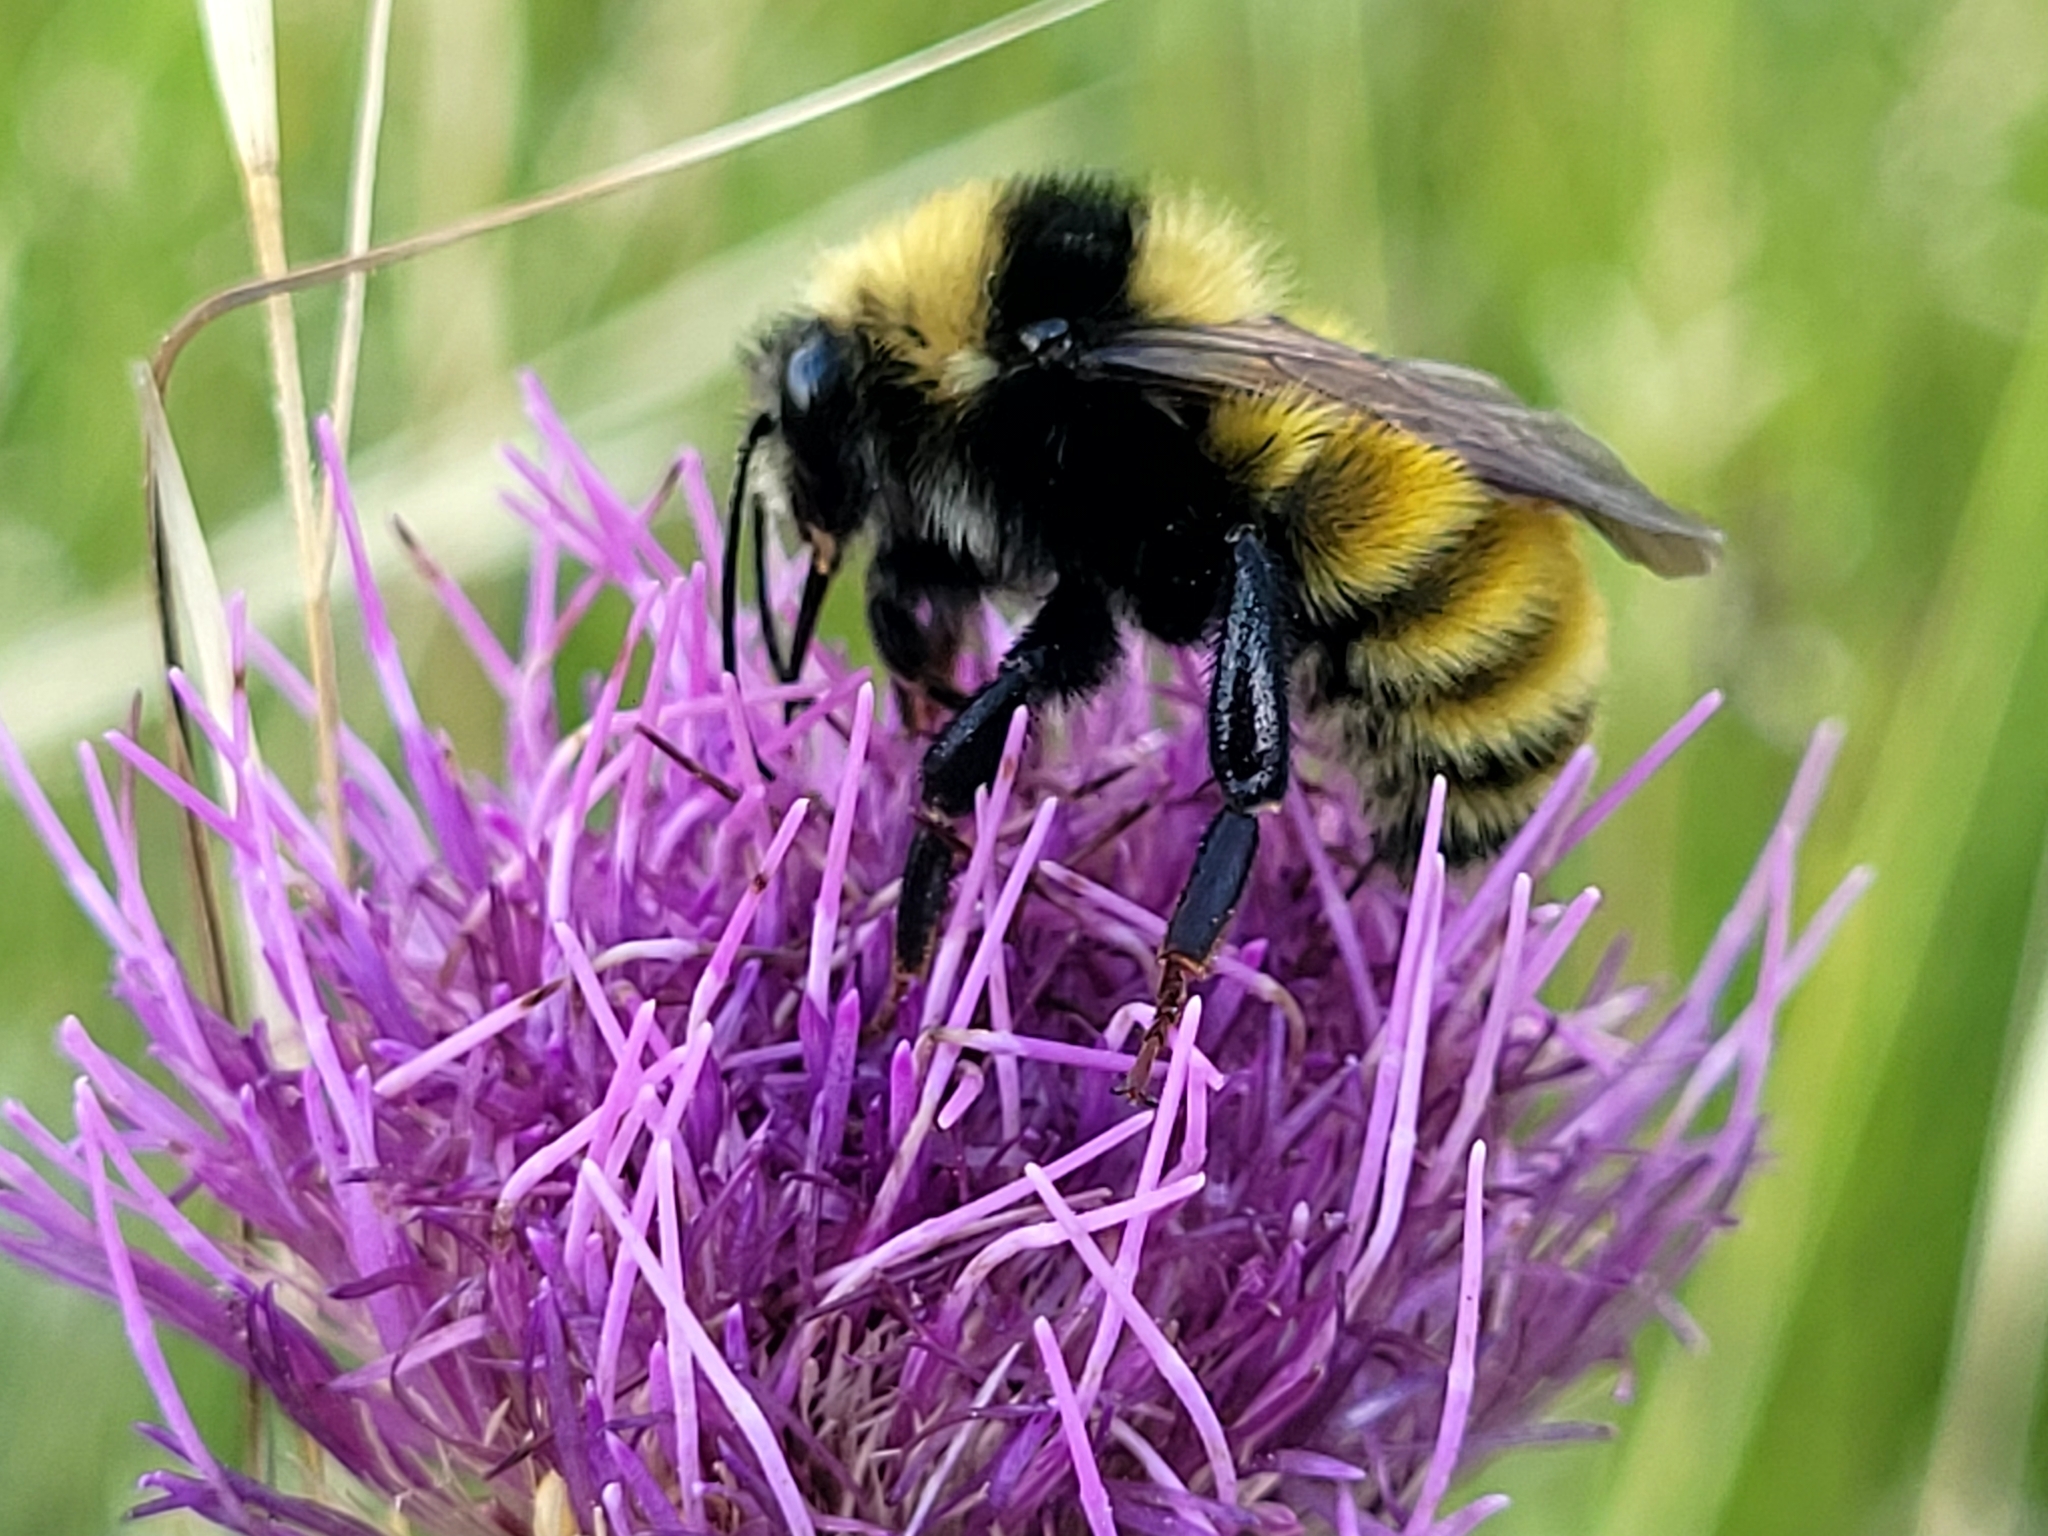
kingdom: Animalia
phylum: Arthropoda
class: Insecta
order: Hymenoptera
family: Apidae
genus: Bombus
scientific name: Bombus borealis
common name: Northern amber bumble bee
